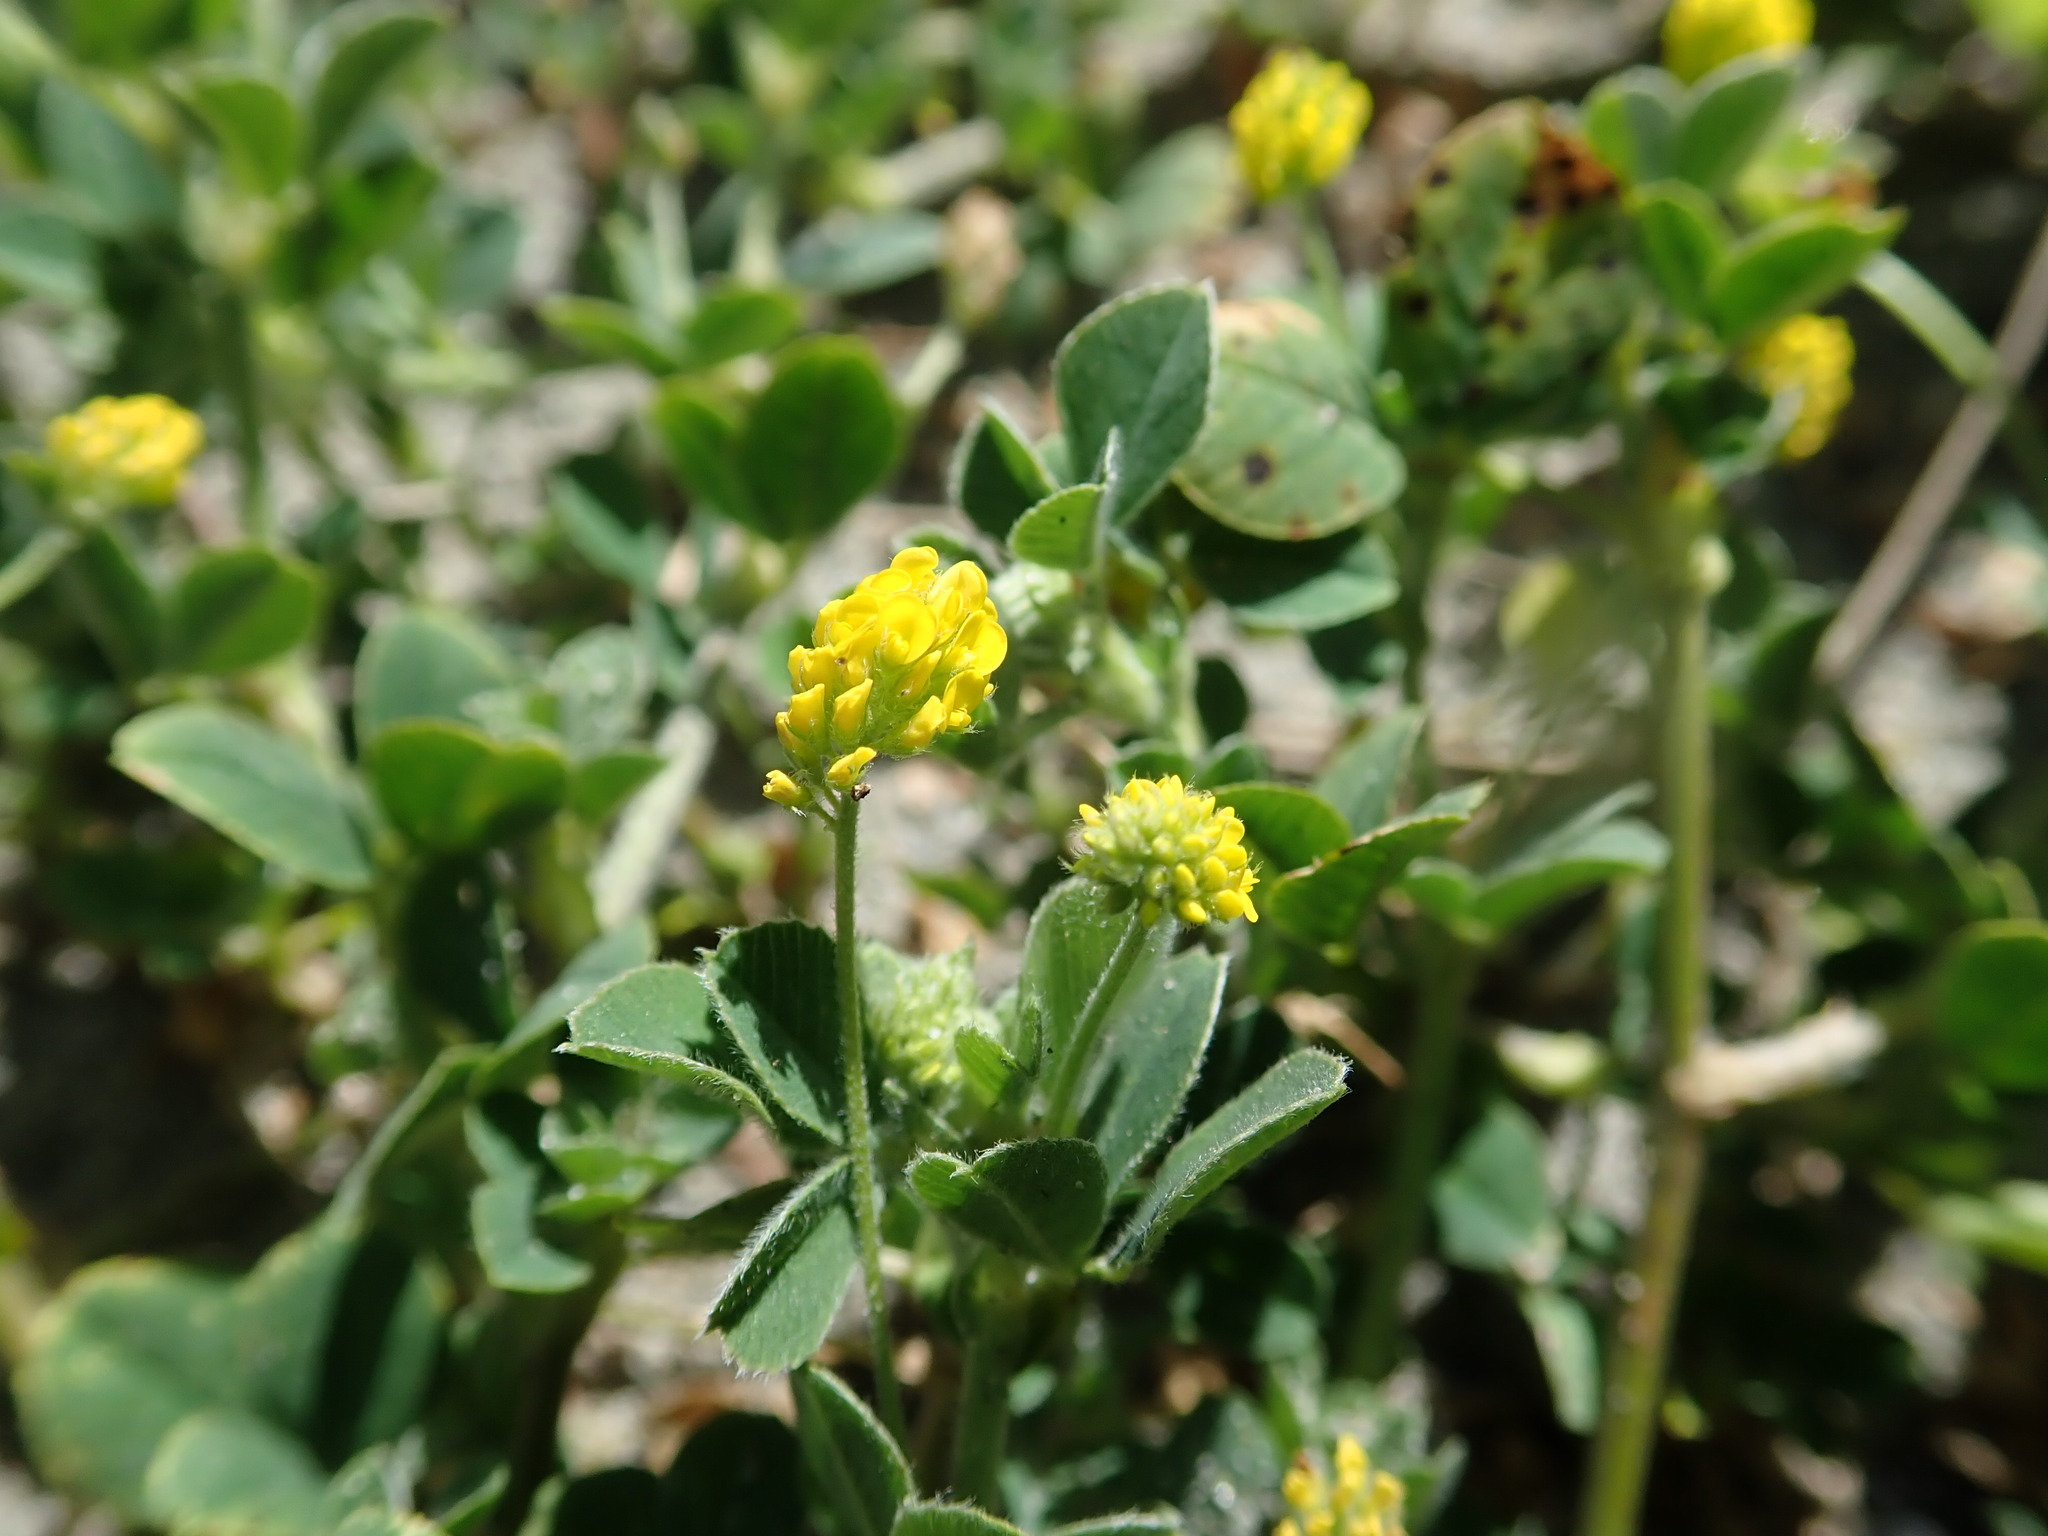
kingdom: Plantae
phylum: Tracheophyta
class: Magnoliopsida
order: Fabales
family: Fabaceae
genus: Medicago
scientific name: Medicago lupulina
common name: Black medick
